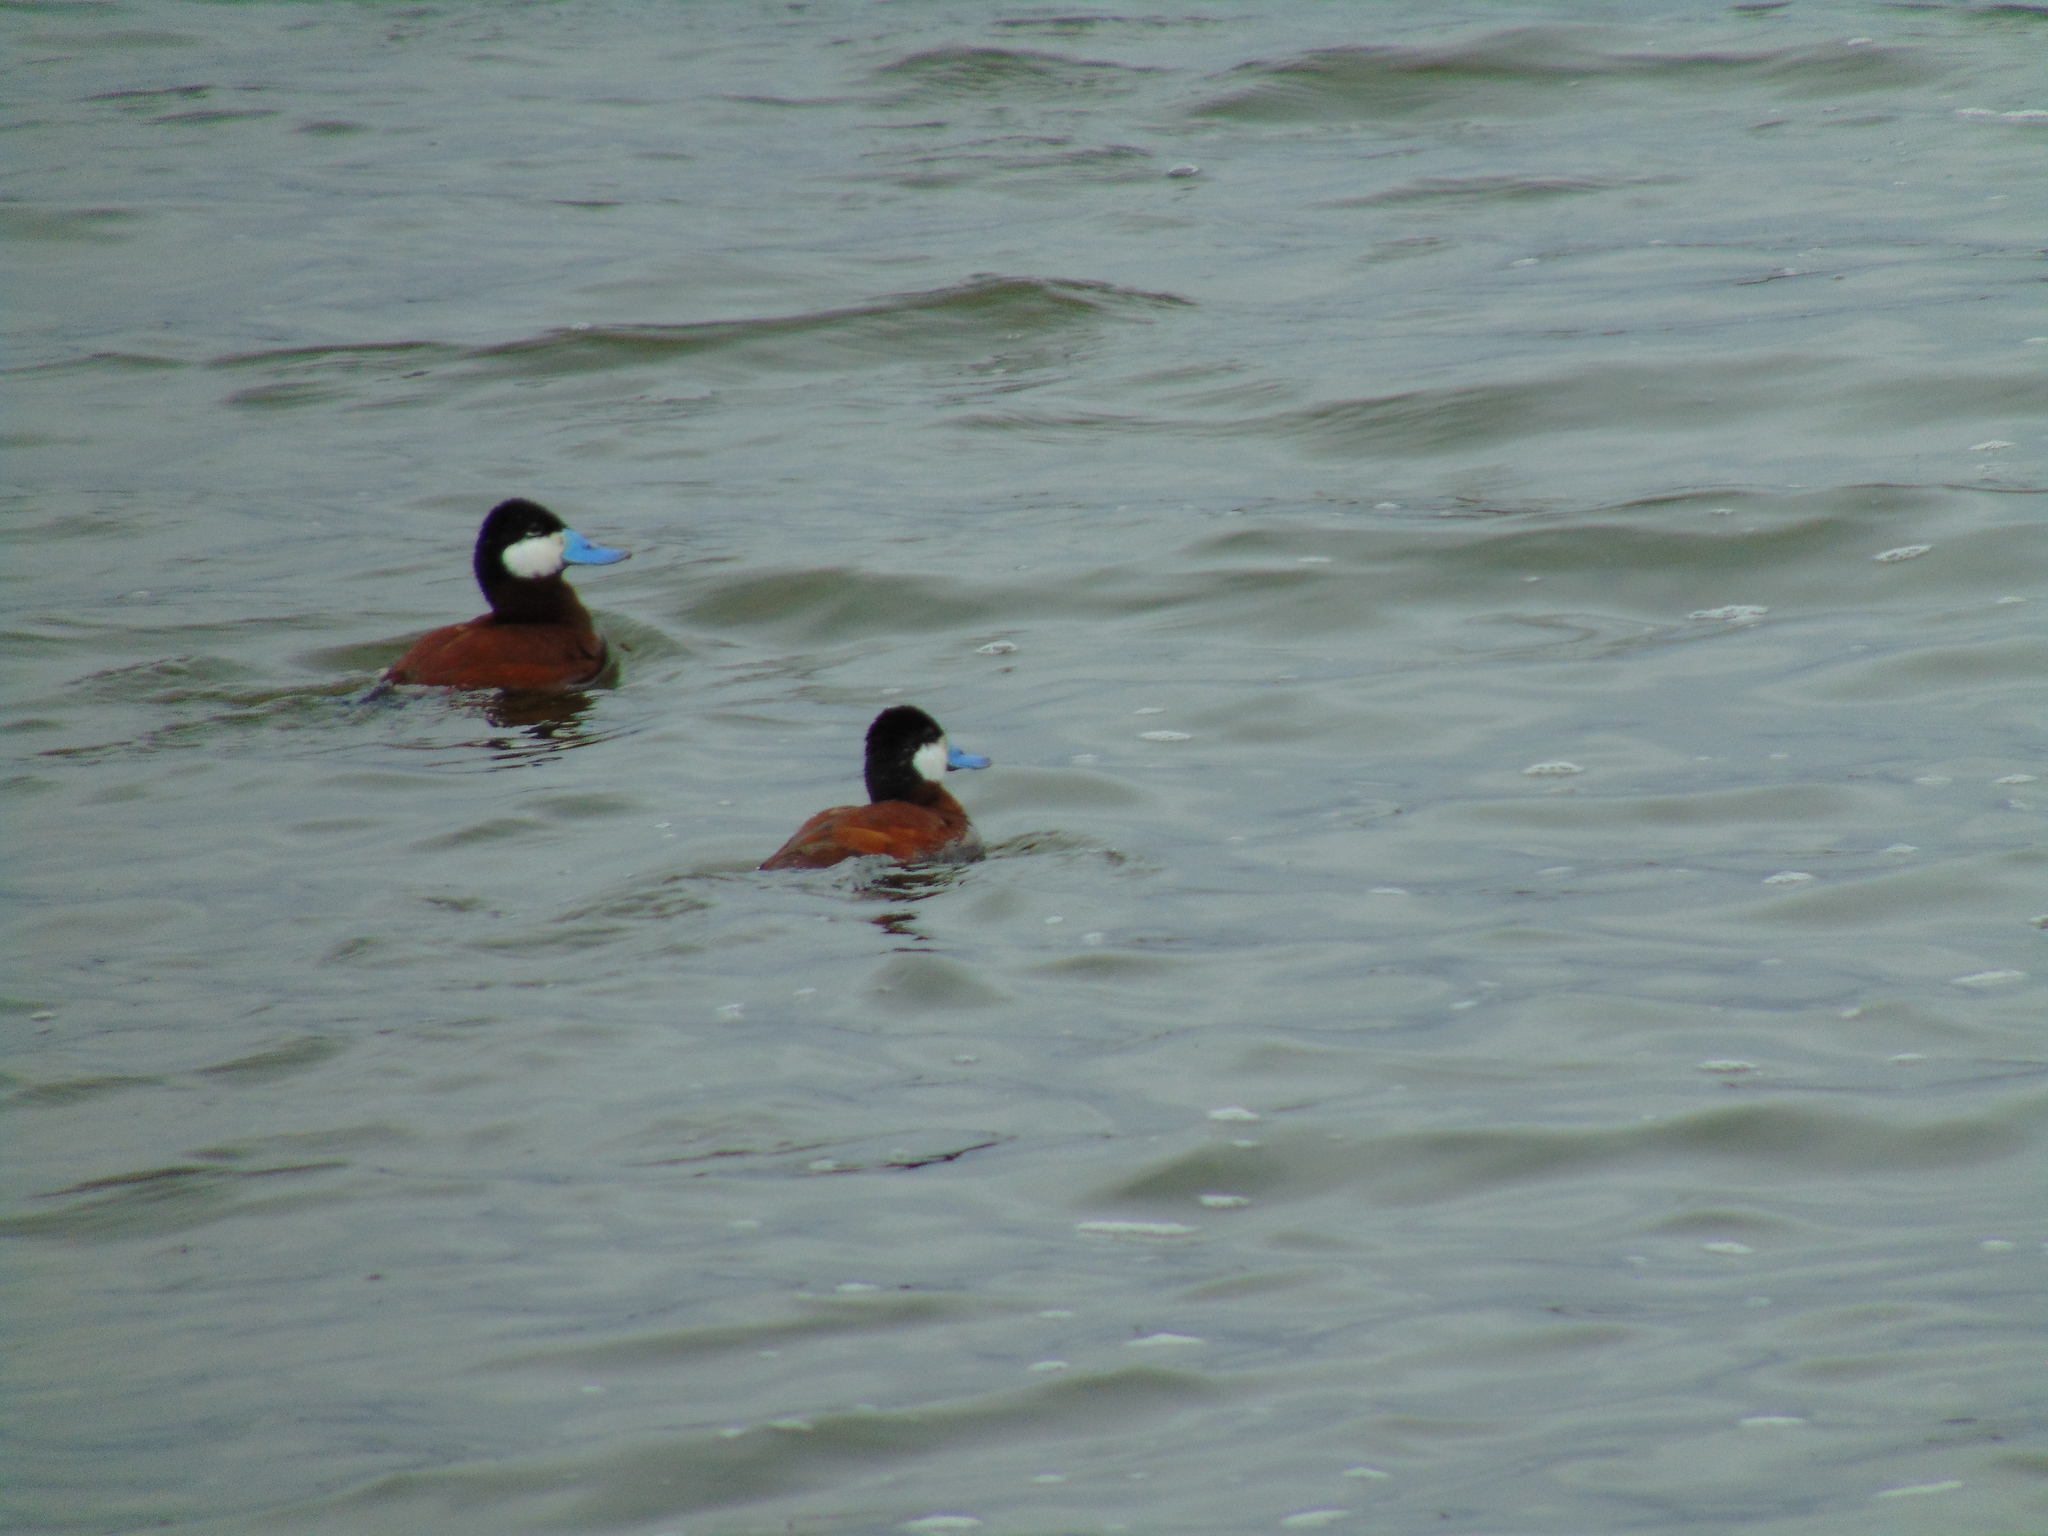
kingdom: Animalia
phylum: Chordata
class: Aves
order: Anseriformes
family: Anatidae
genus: Oxyura
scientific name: Oxyura jamaicensis
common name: Ruddy duck
